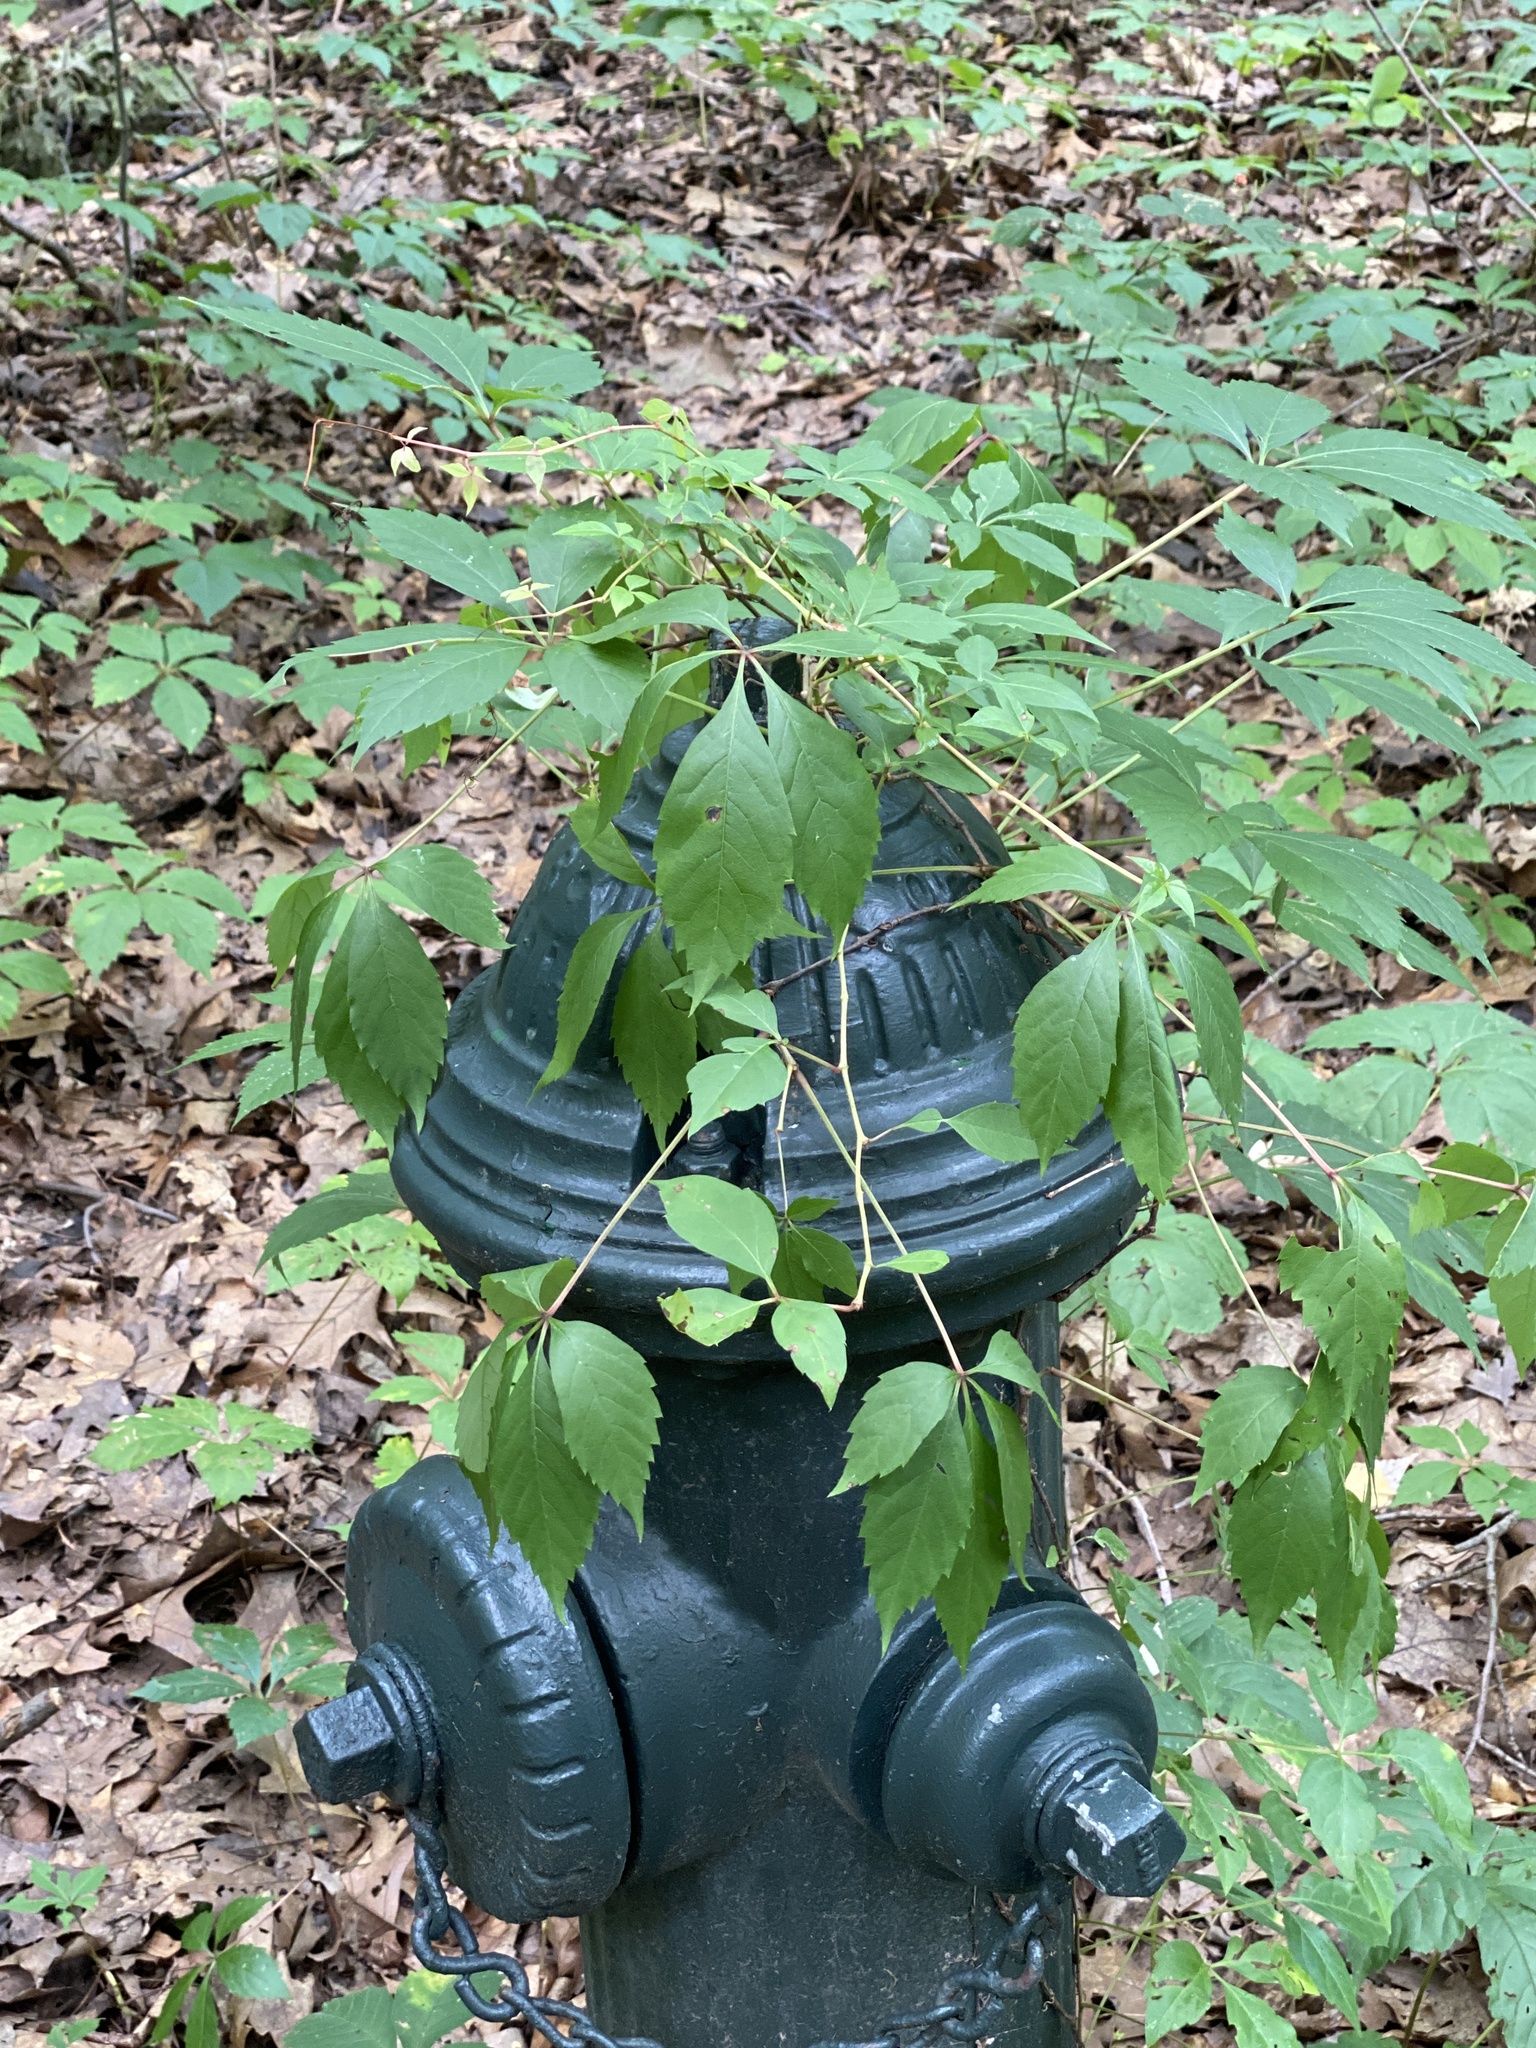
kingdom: Plantae
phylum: Tracheophyta
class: Magnoliopsida
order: Vitales
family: Vitaceae
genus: Parthenocissus
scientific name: Parthenocissus quinquefolia
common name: Virginia-creeper
